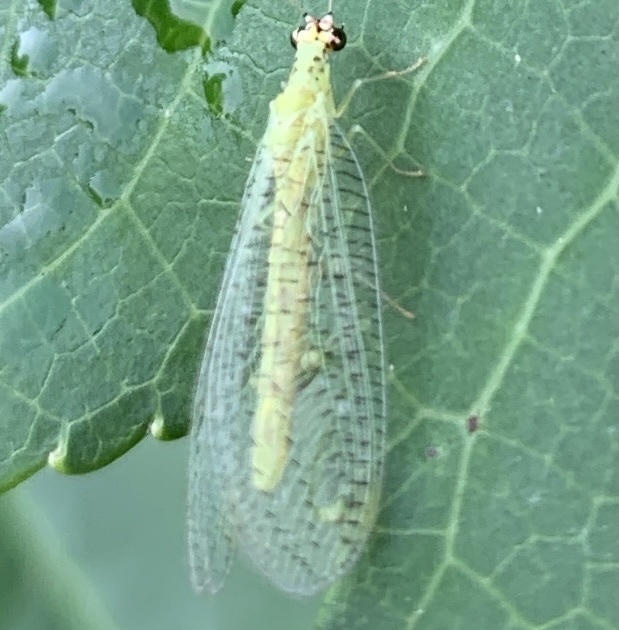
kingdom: Animalia
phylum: Arthropoda
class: Insecta
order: Neuroptera
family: Chrysopidae
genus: Chrysopa
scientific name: Chrysopa oculata
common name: Golden-eyed lacewing
